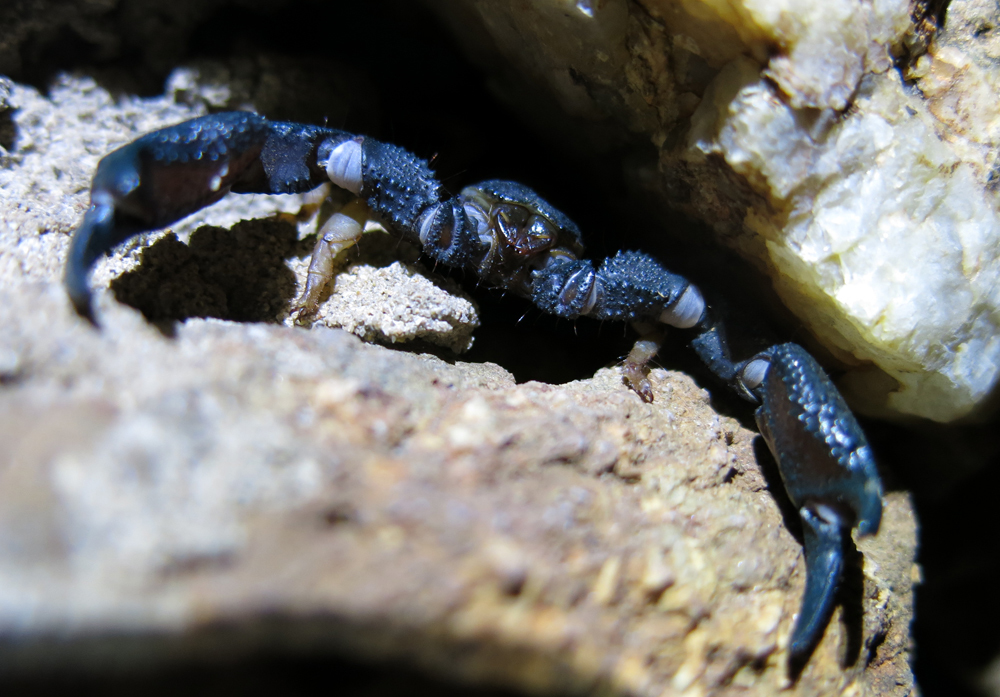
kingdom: Animalia
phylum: Arthropoda
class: Arachnida
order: Scorpiones
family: Hormuridae
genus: Opisthacanthus
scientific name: Opisthacanthus asper
